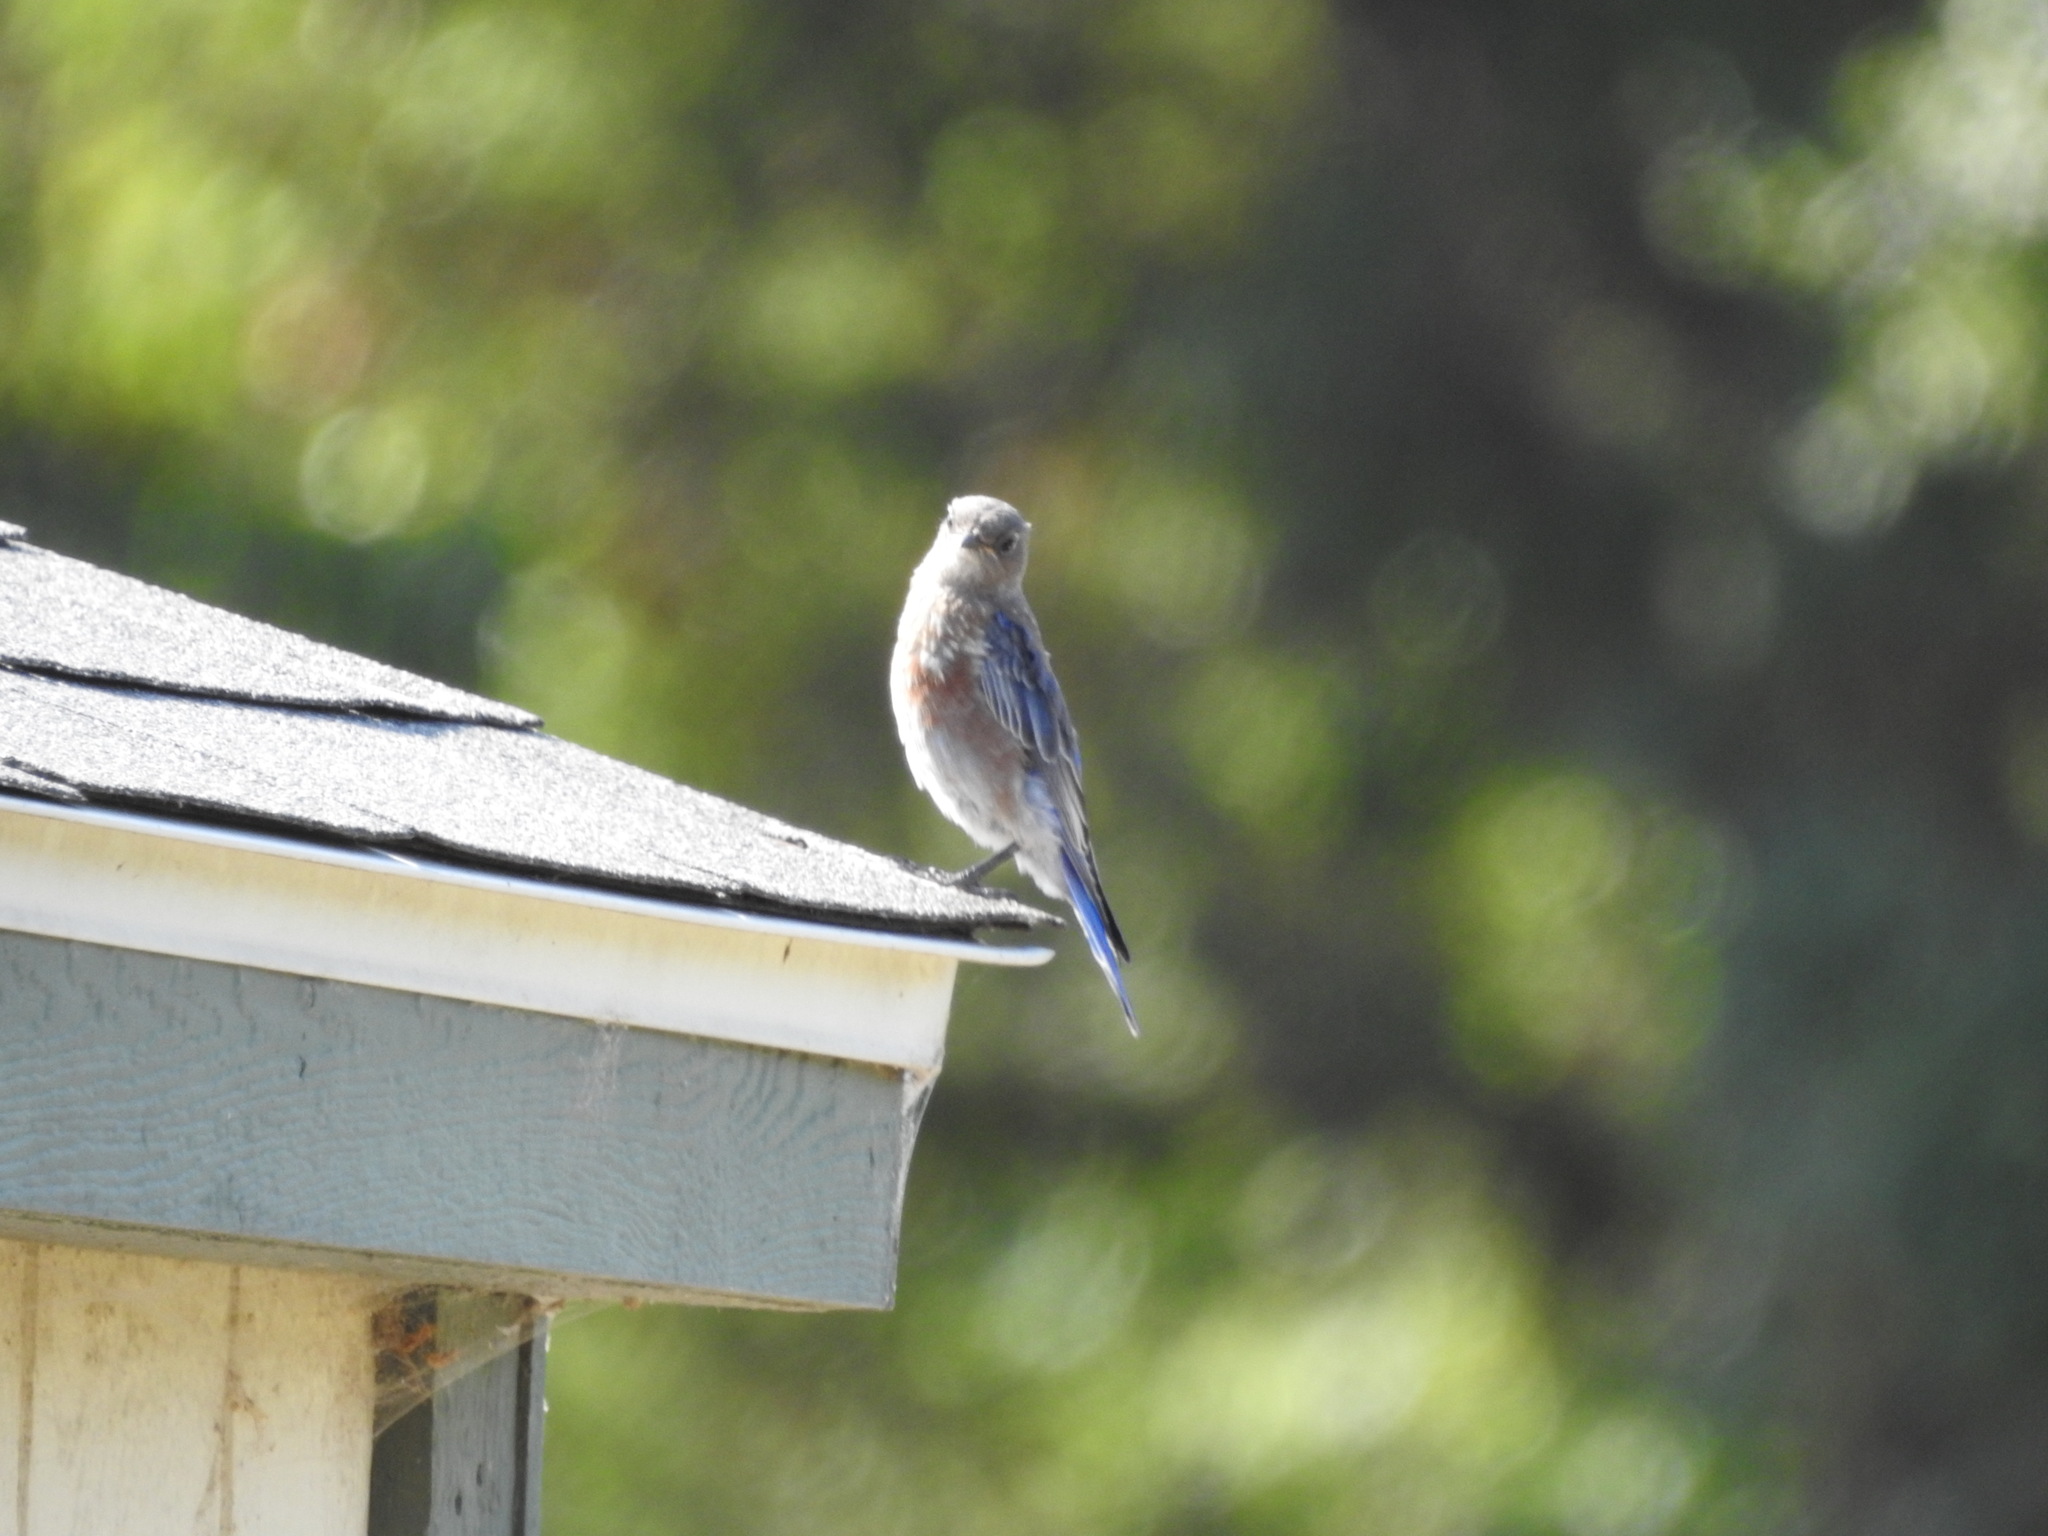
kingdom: Animalia
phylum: Chordata
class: Aves
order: Passeriformes
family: Turdidae
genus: Sialia
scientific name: Sialia mexicana
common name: Western bluebird
